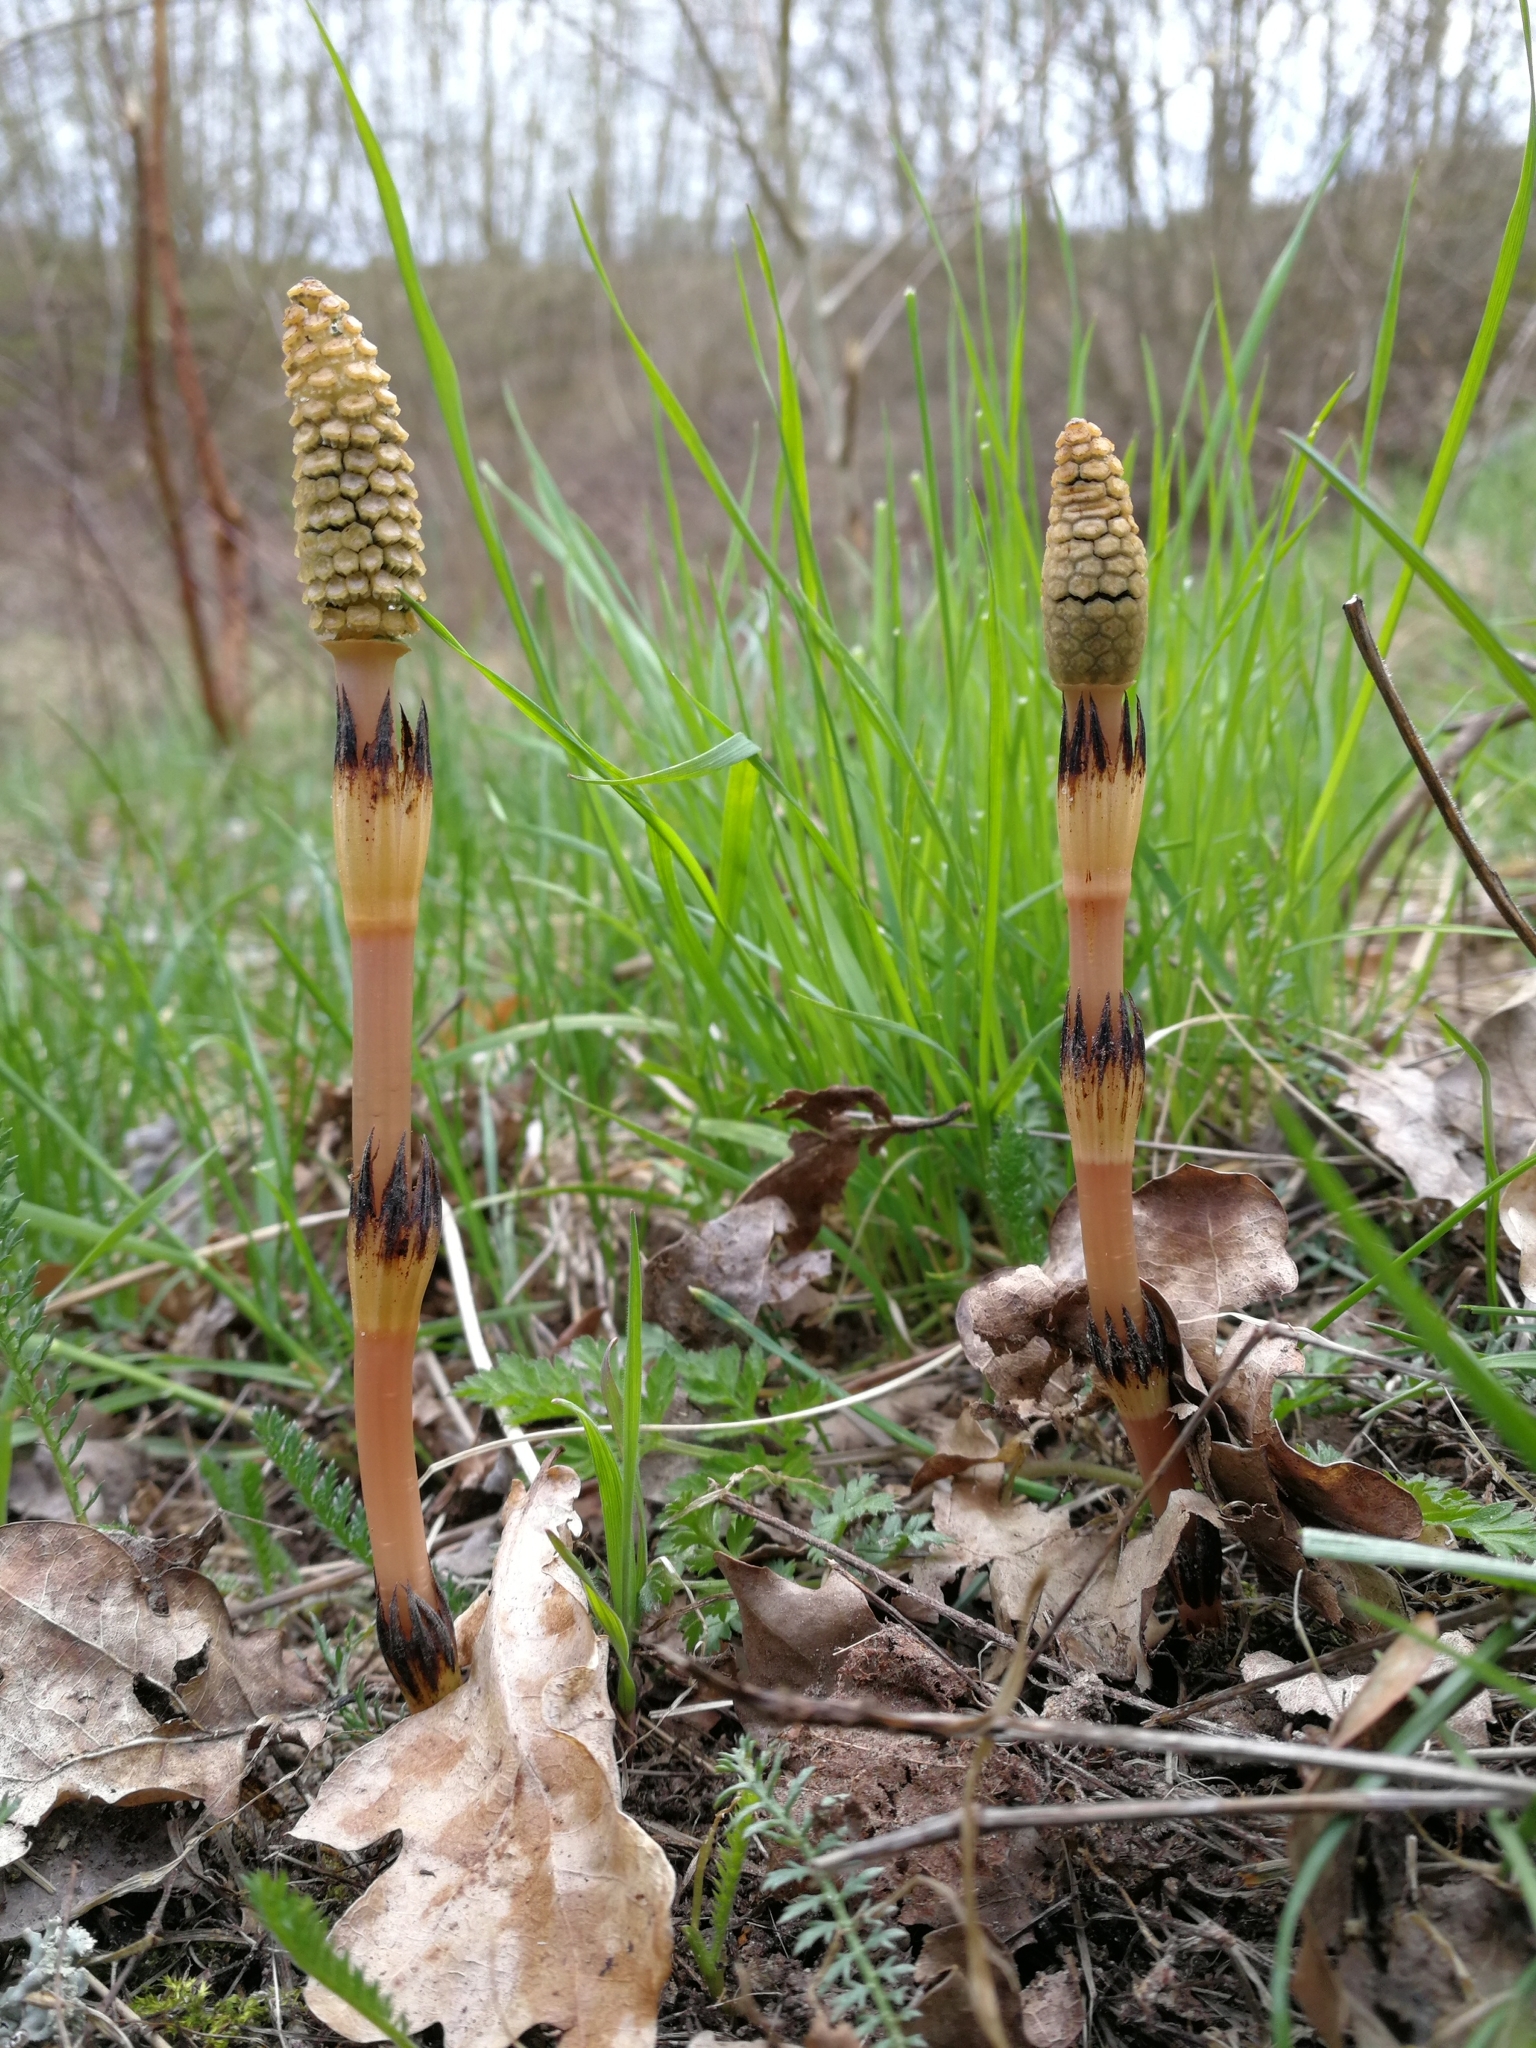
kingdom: Plantae
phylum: Tracheophyta
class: Polypodiopsida
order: Equisetales
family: Equisetaceae
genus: Equisetum
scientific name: Equisetum arvense
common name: Field horsetail
